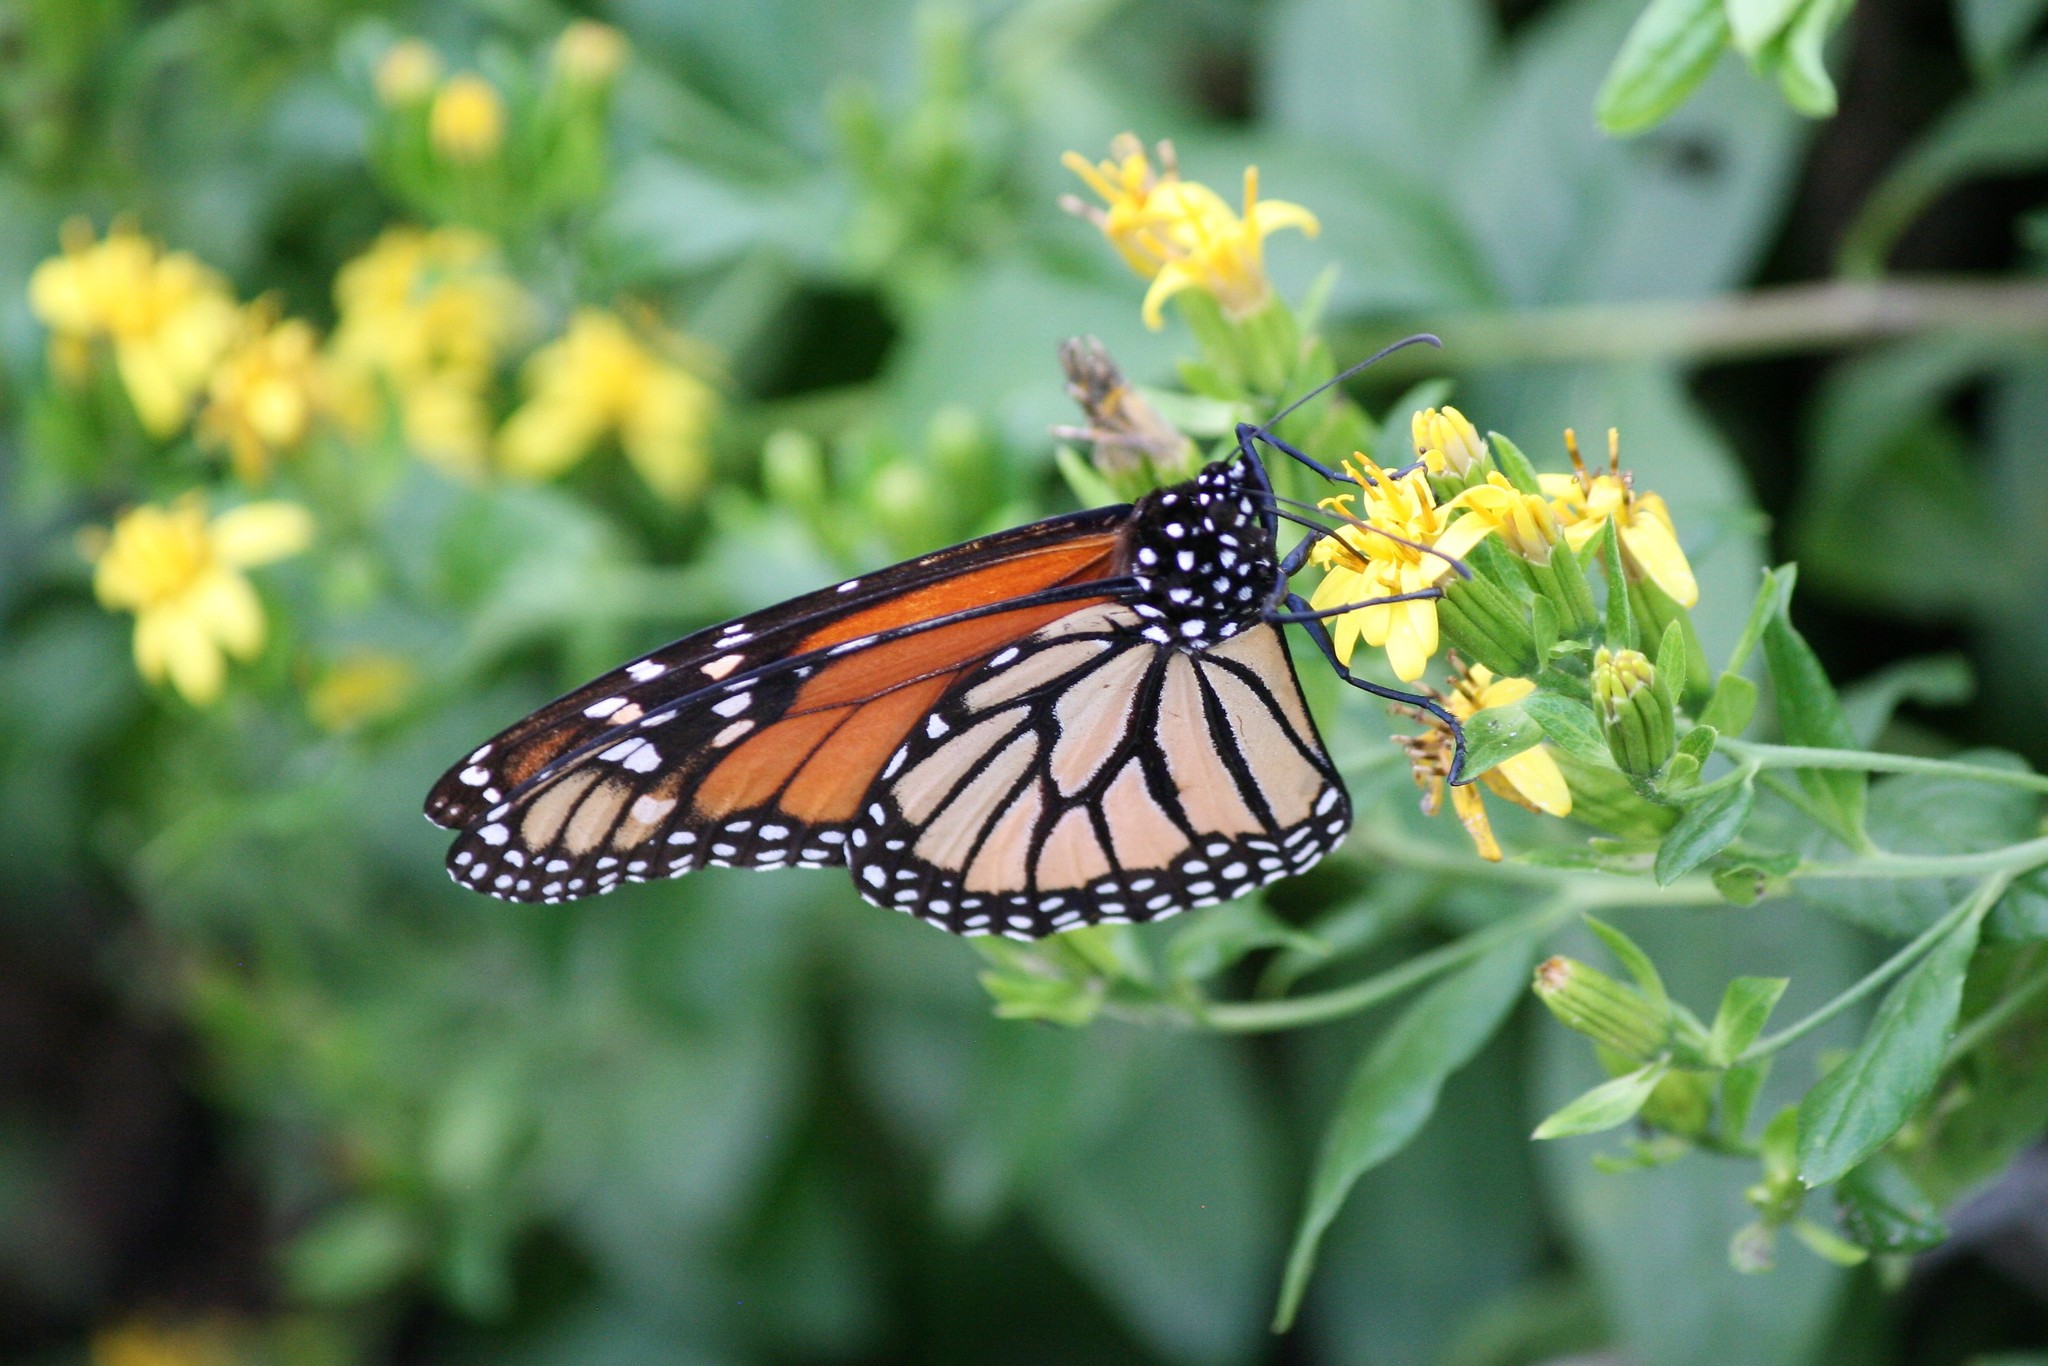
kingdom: Animalia
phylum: Arthropoda
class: Insecta
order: Lepidoptera
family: Nymphalidae
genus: Danaus
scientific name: Danaus plexippus
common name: Monarch
